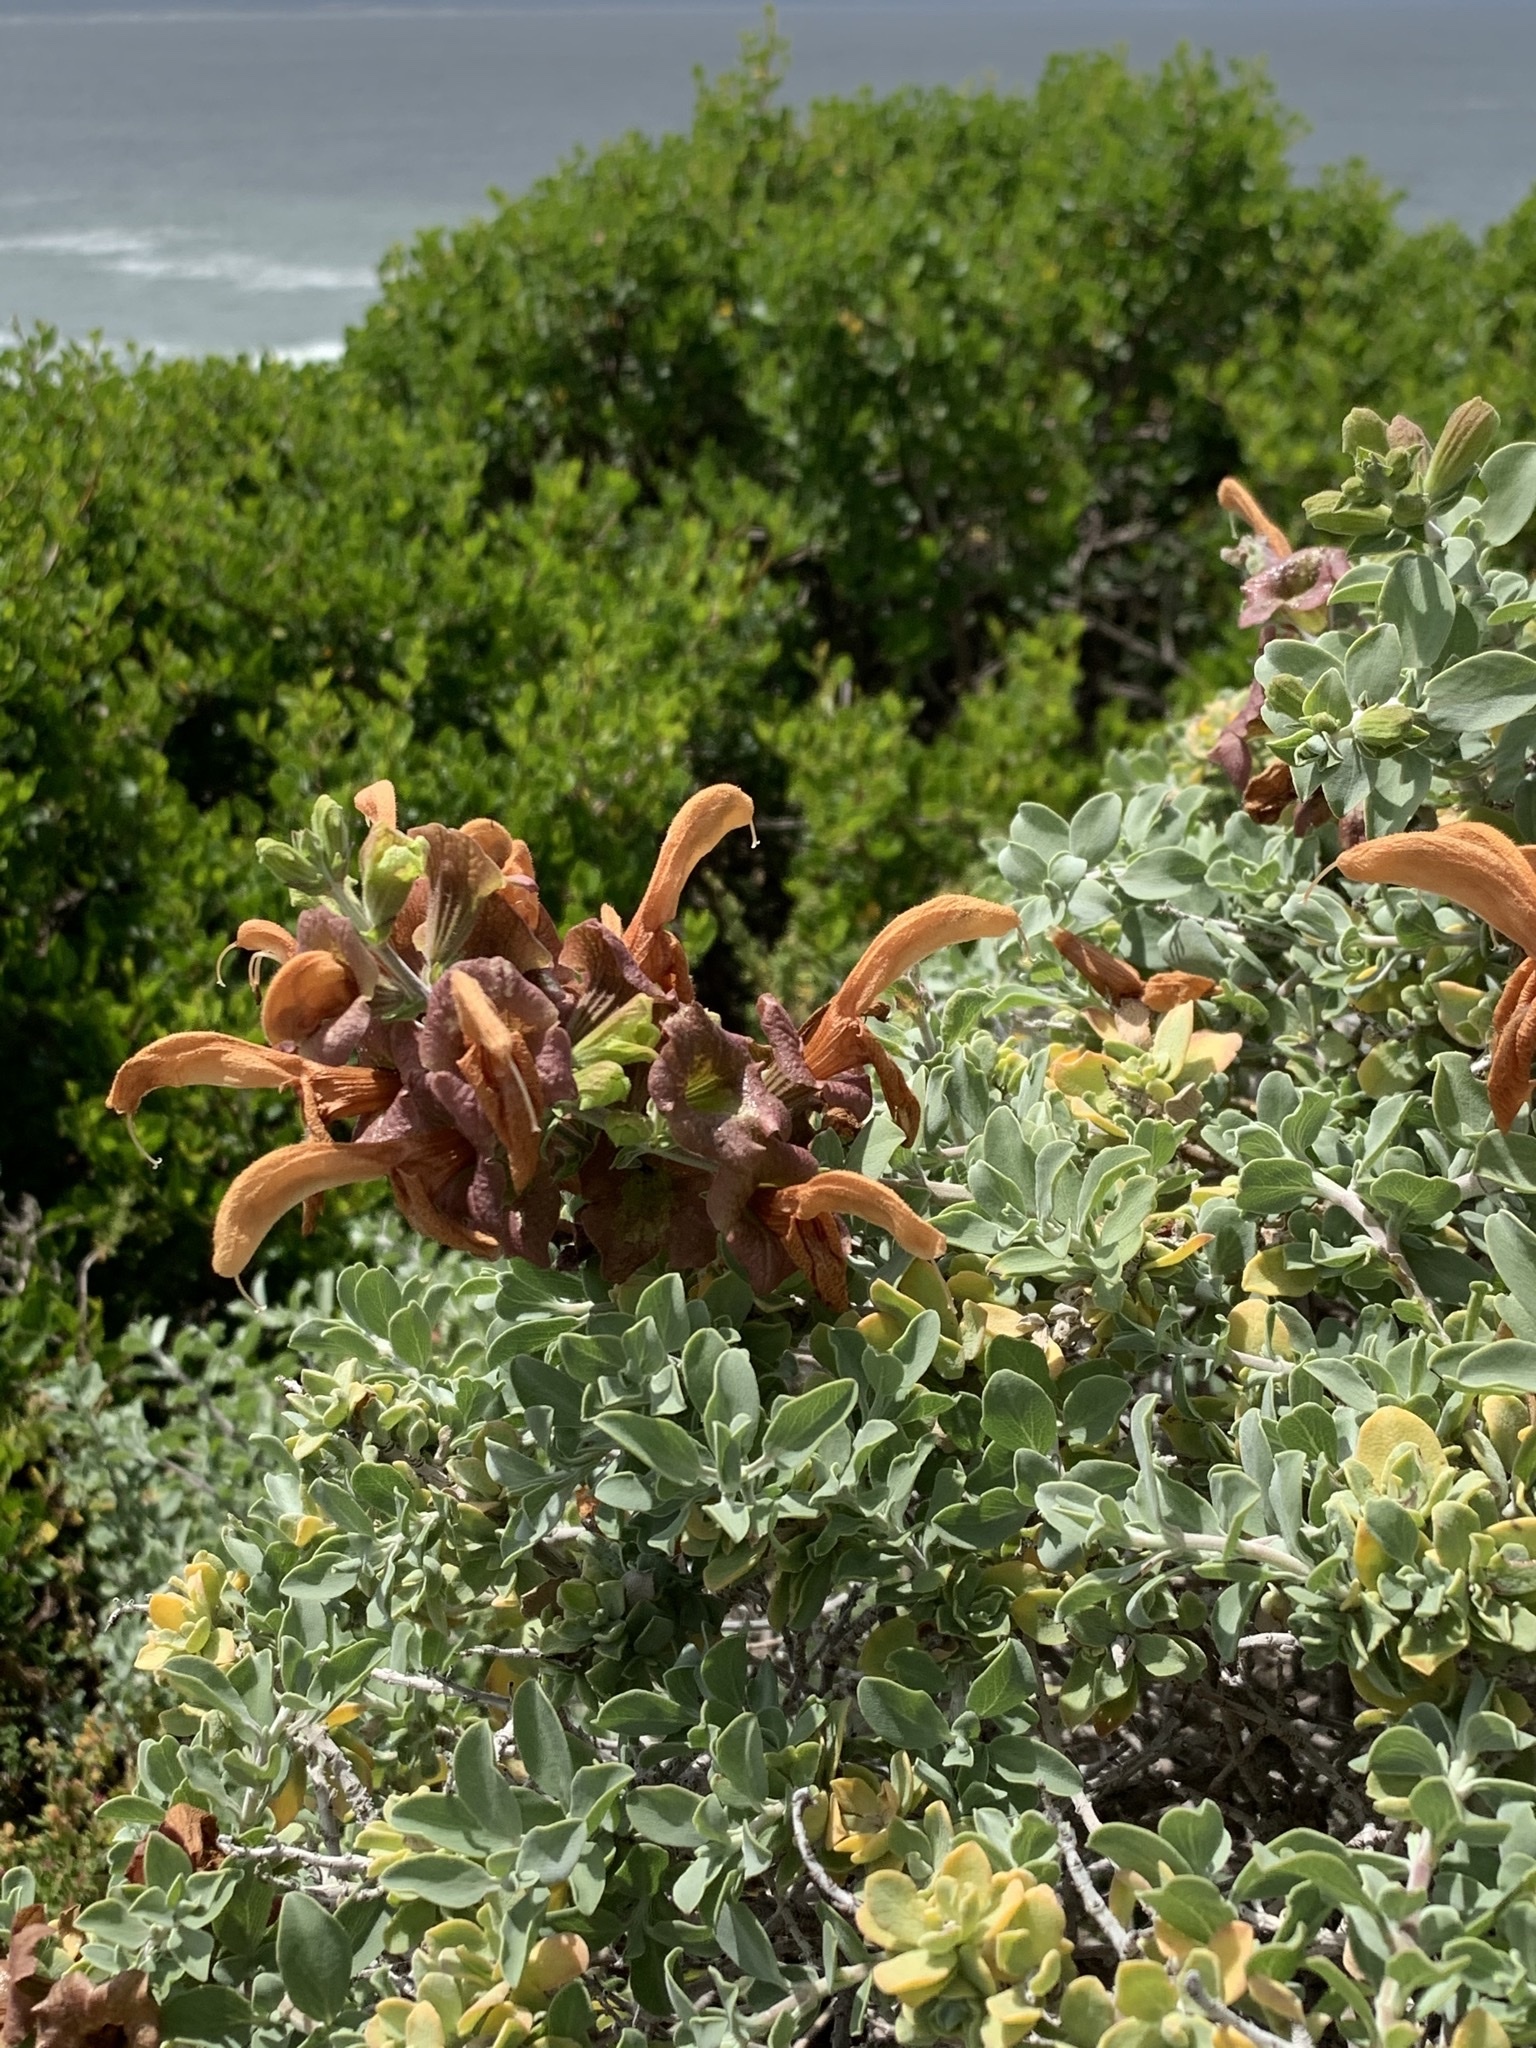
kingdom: Plantae
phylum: Tracheophyta
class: Magnoliopsida
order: Lamiales
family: Lamiaceae
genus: Salvia
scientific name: Salvia aurea
